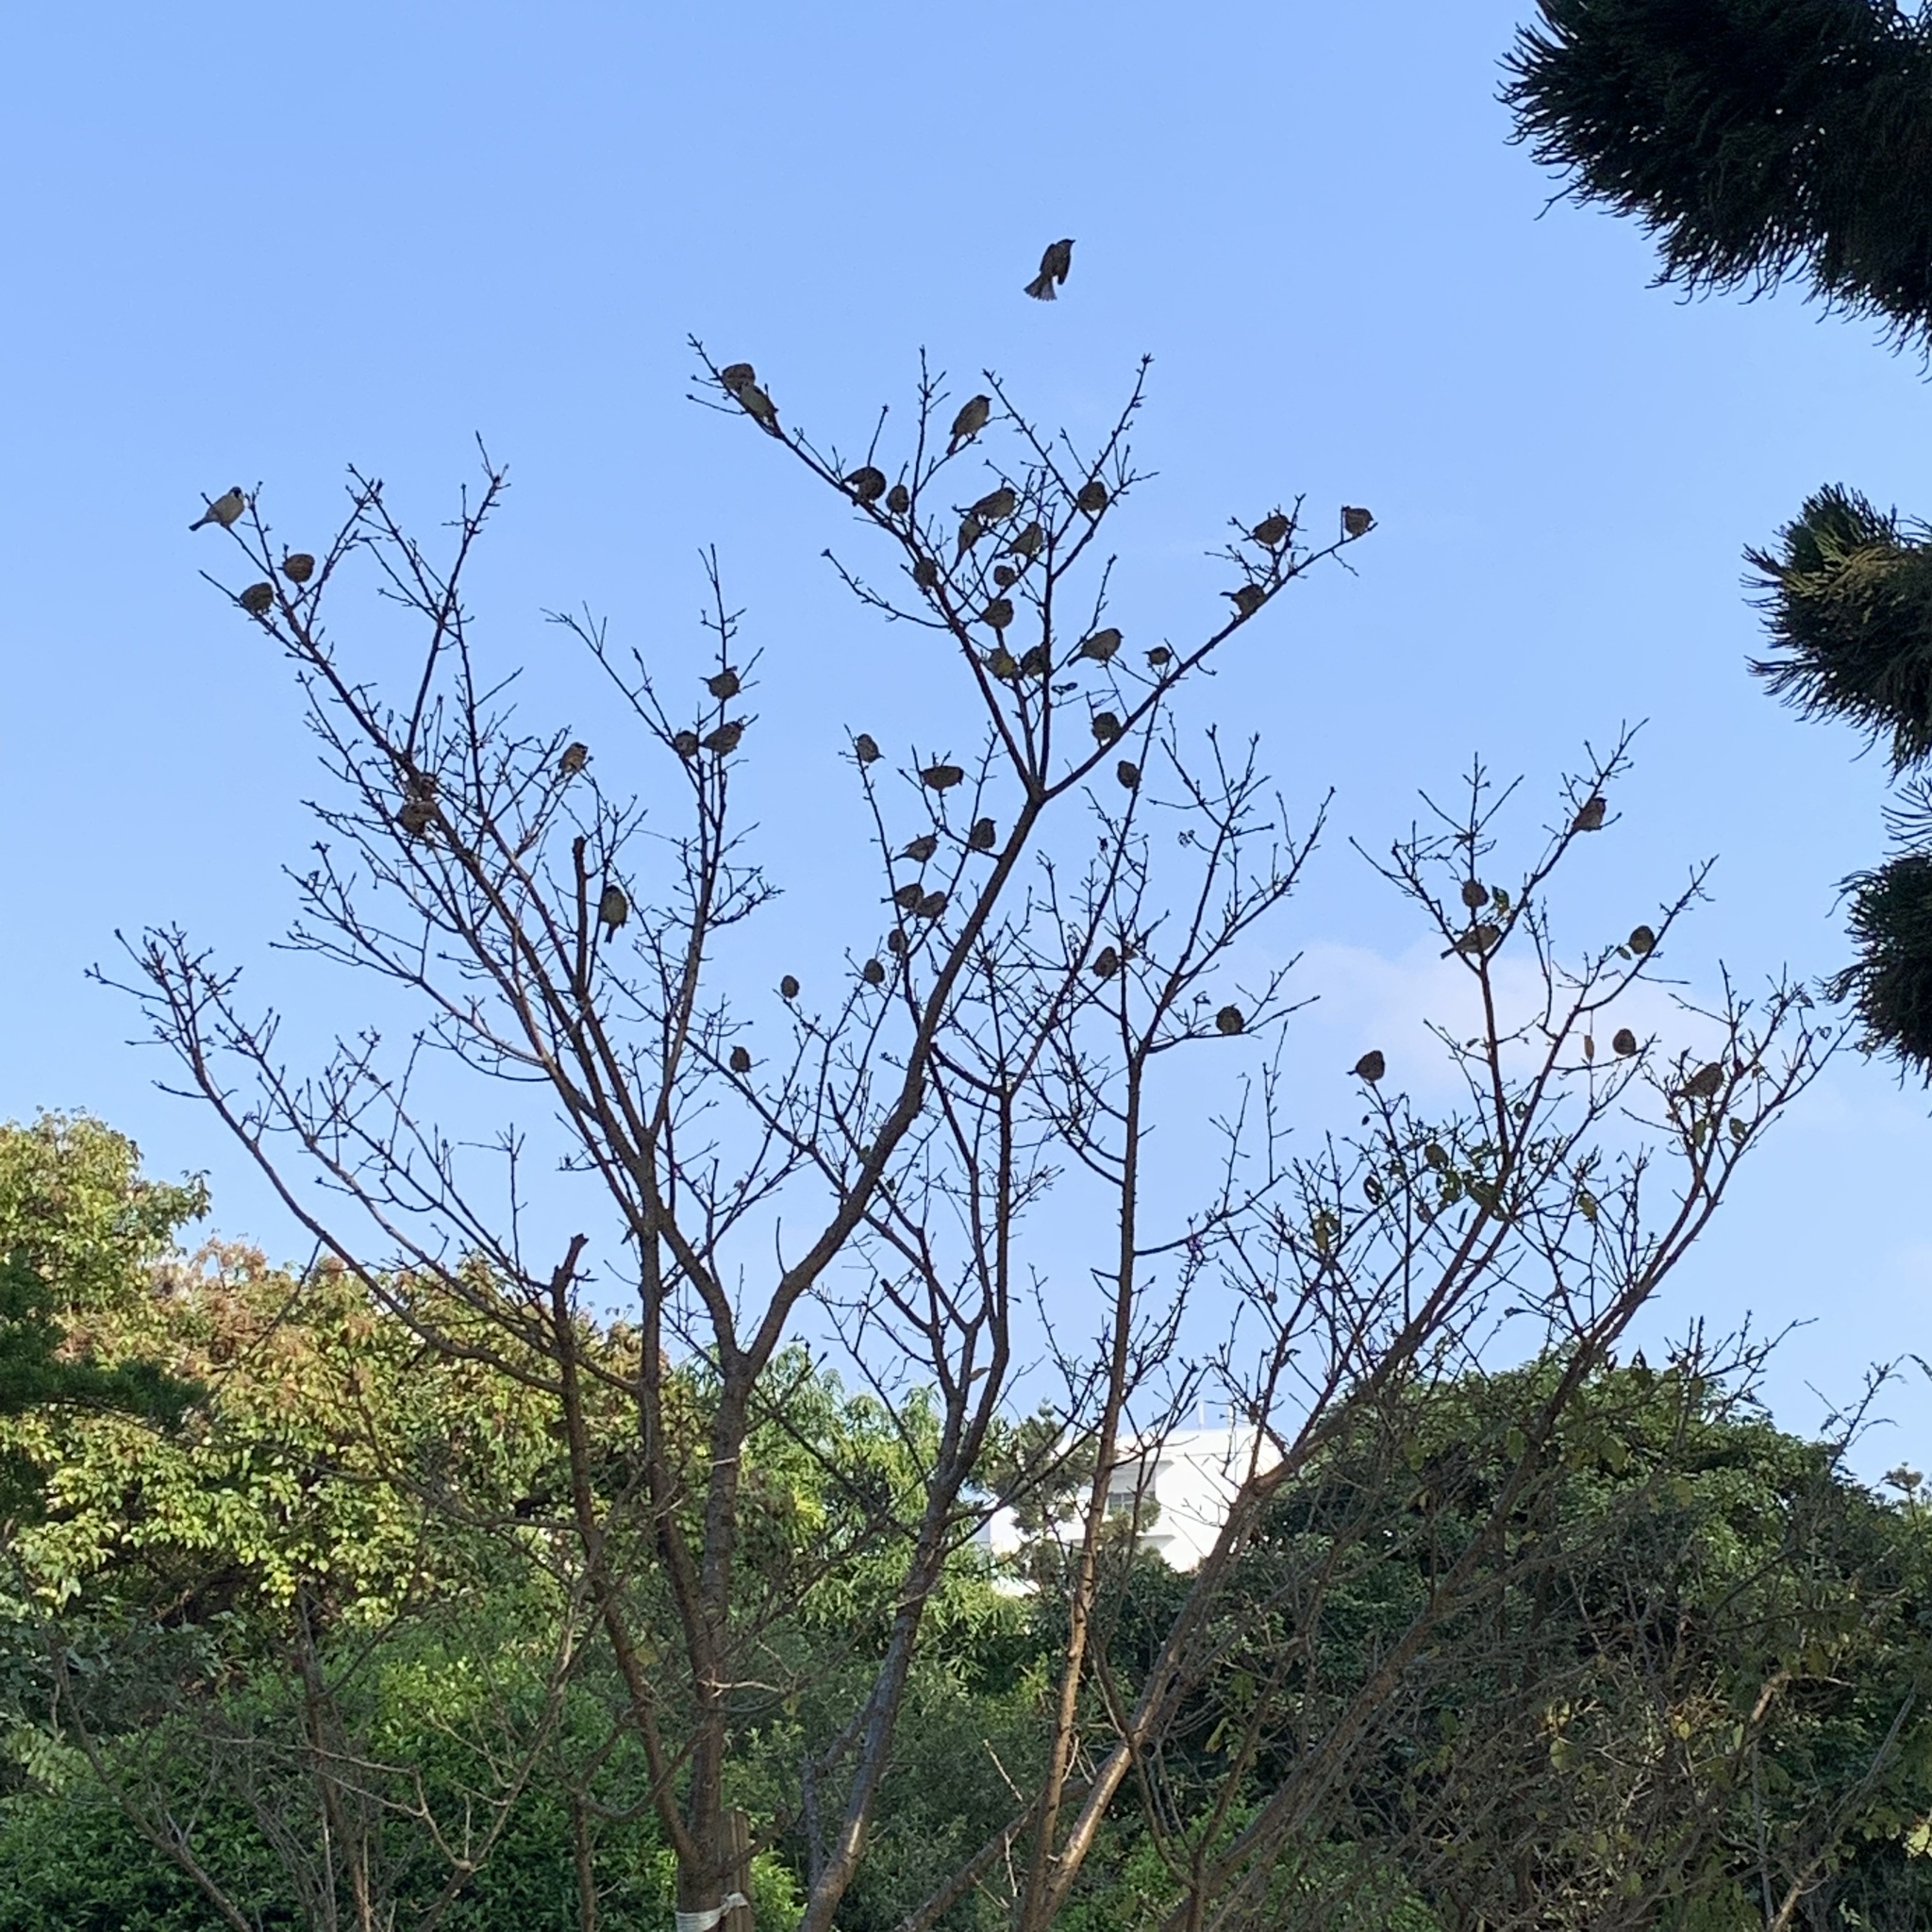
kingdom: Animalia
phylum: Chordata
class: Aves
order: Passeriformes
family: Passeridae
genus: Passer
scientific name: Passer montanus
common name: Eurasian tree sparrow
